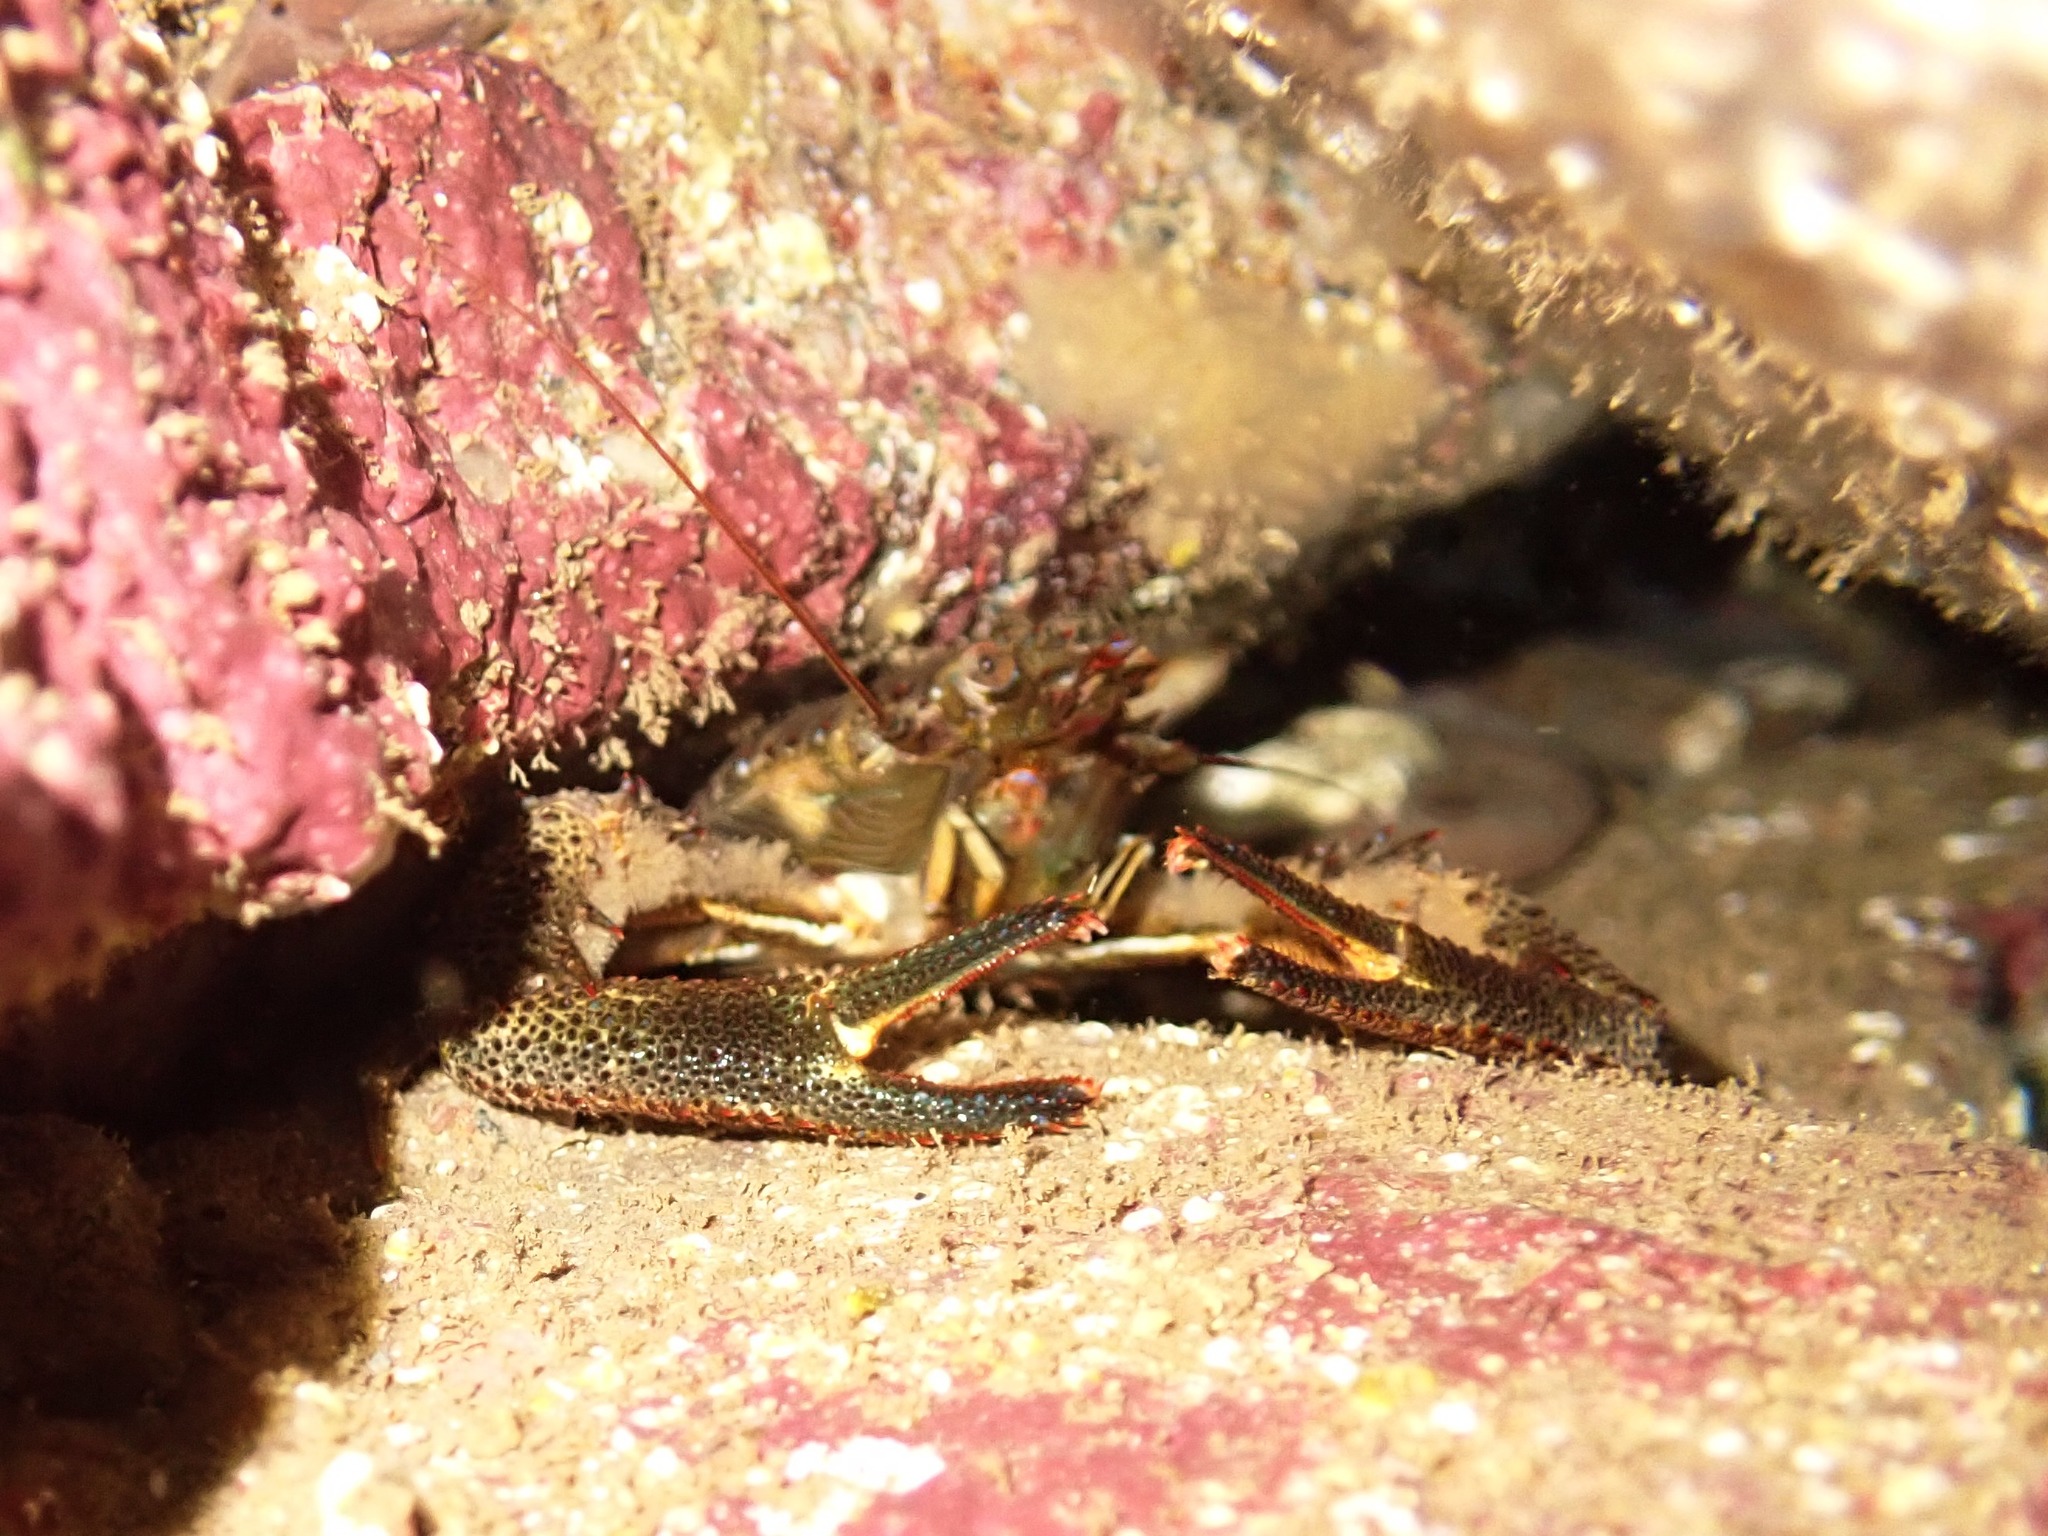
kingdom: Animalia
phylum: Arthropoda
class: Malacostraca
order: Decapoda
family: Galatheidae
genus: Galathea
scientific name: Galathea squamifera
